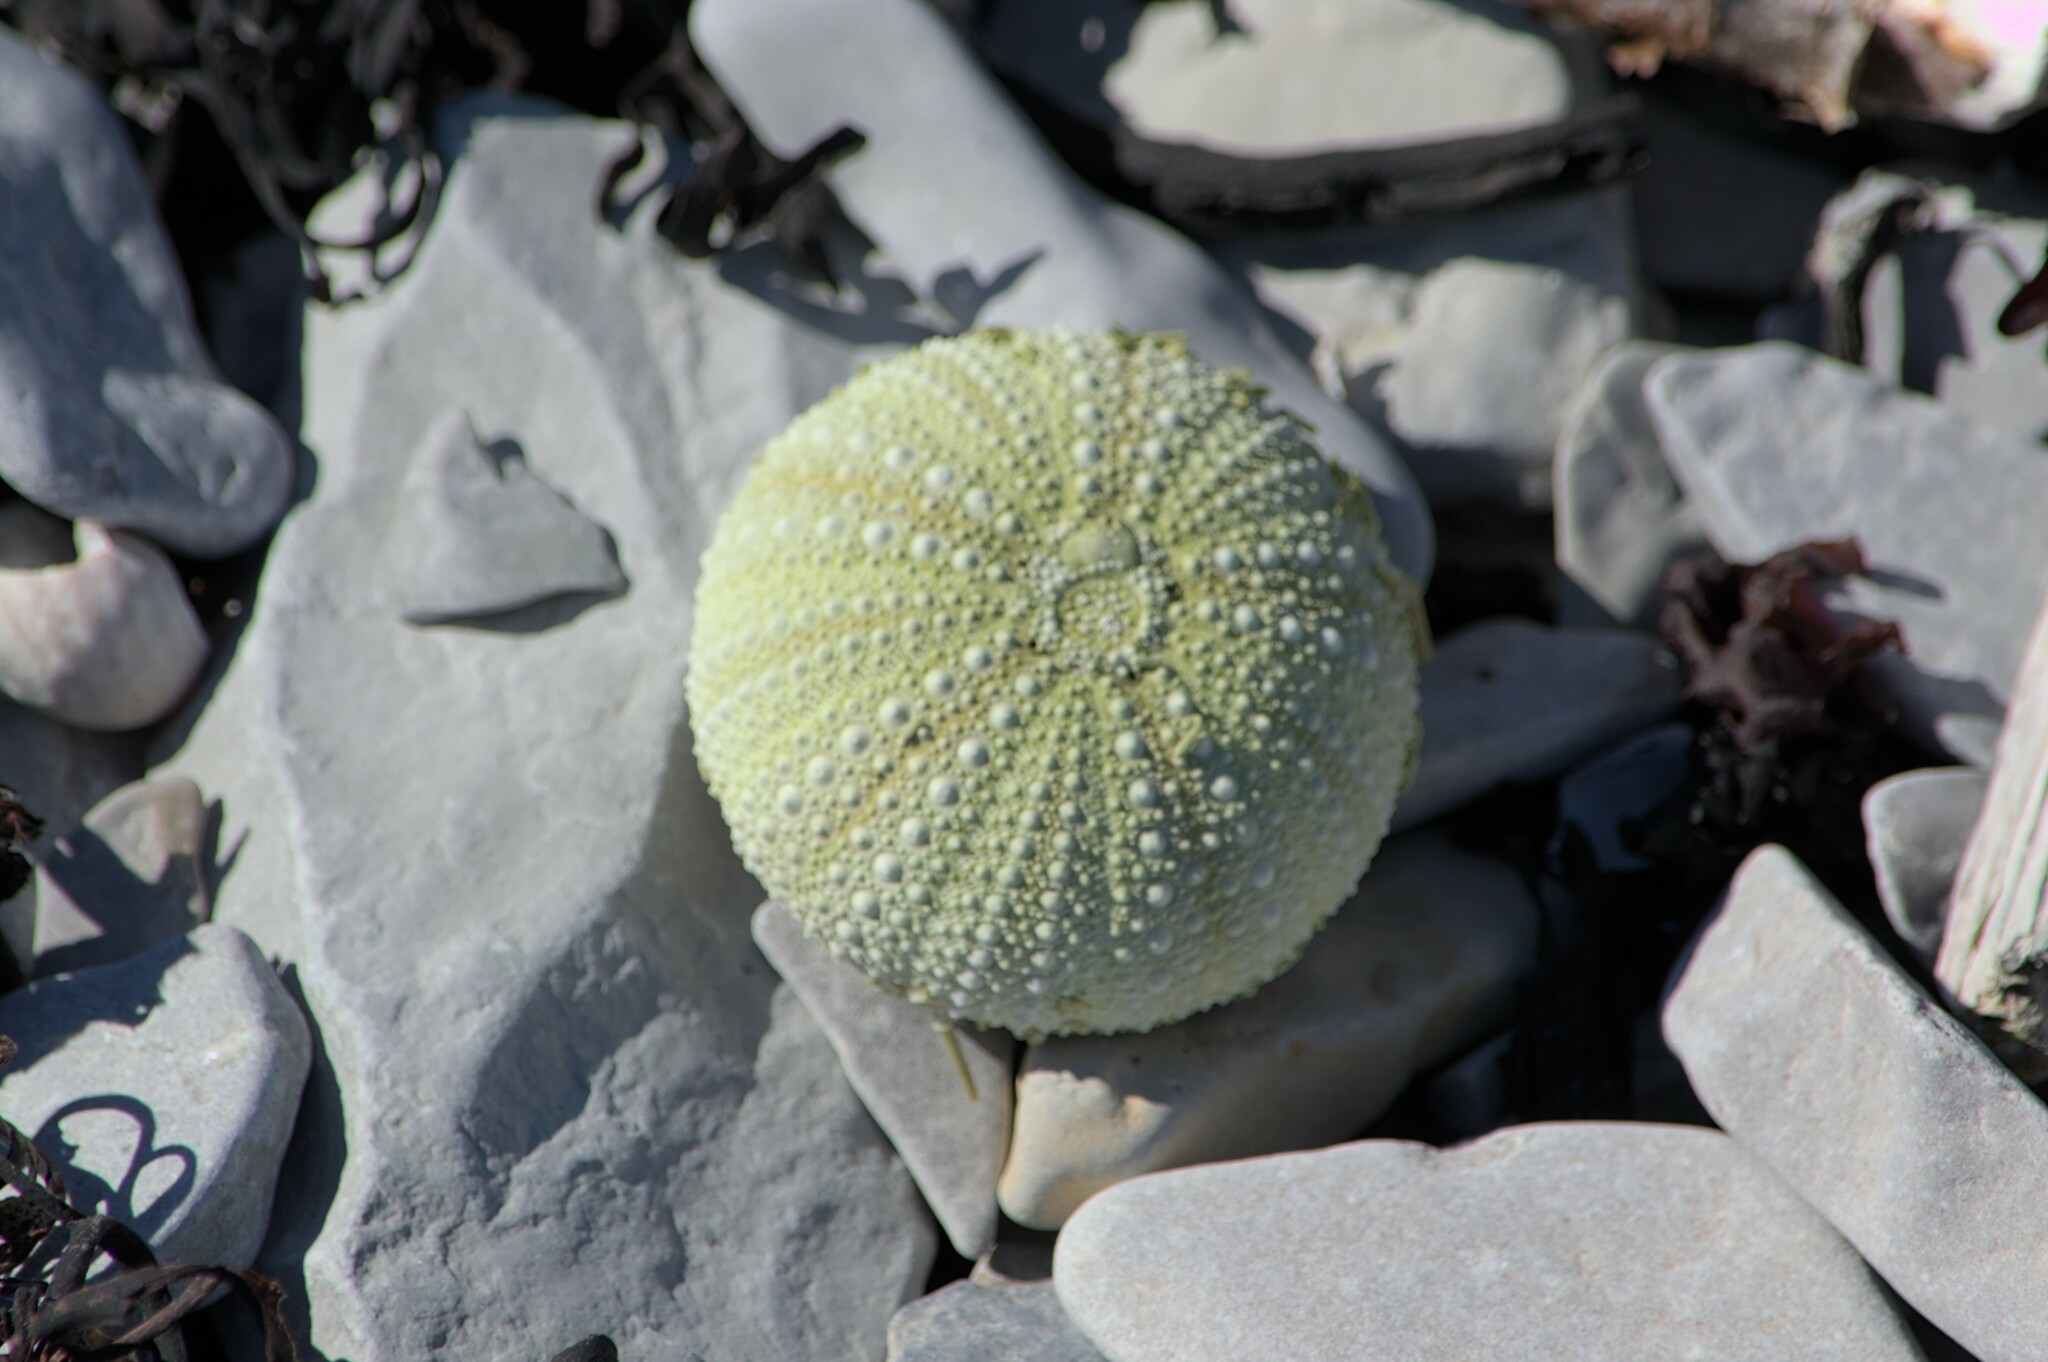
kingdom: Animalia
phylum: Echinodermata
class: Echinoidea
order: Camarodonta
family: Strongylocentrotidae
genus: Strongylocentrotus
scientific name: Strongylocentrotus droebachiensis
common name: Northern sea urchin
